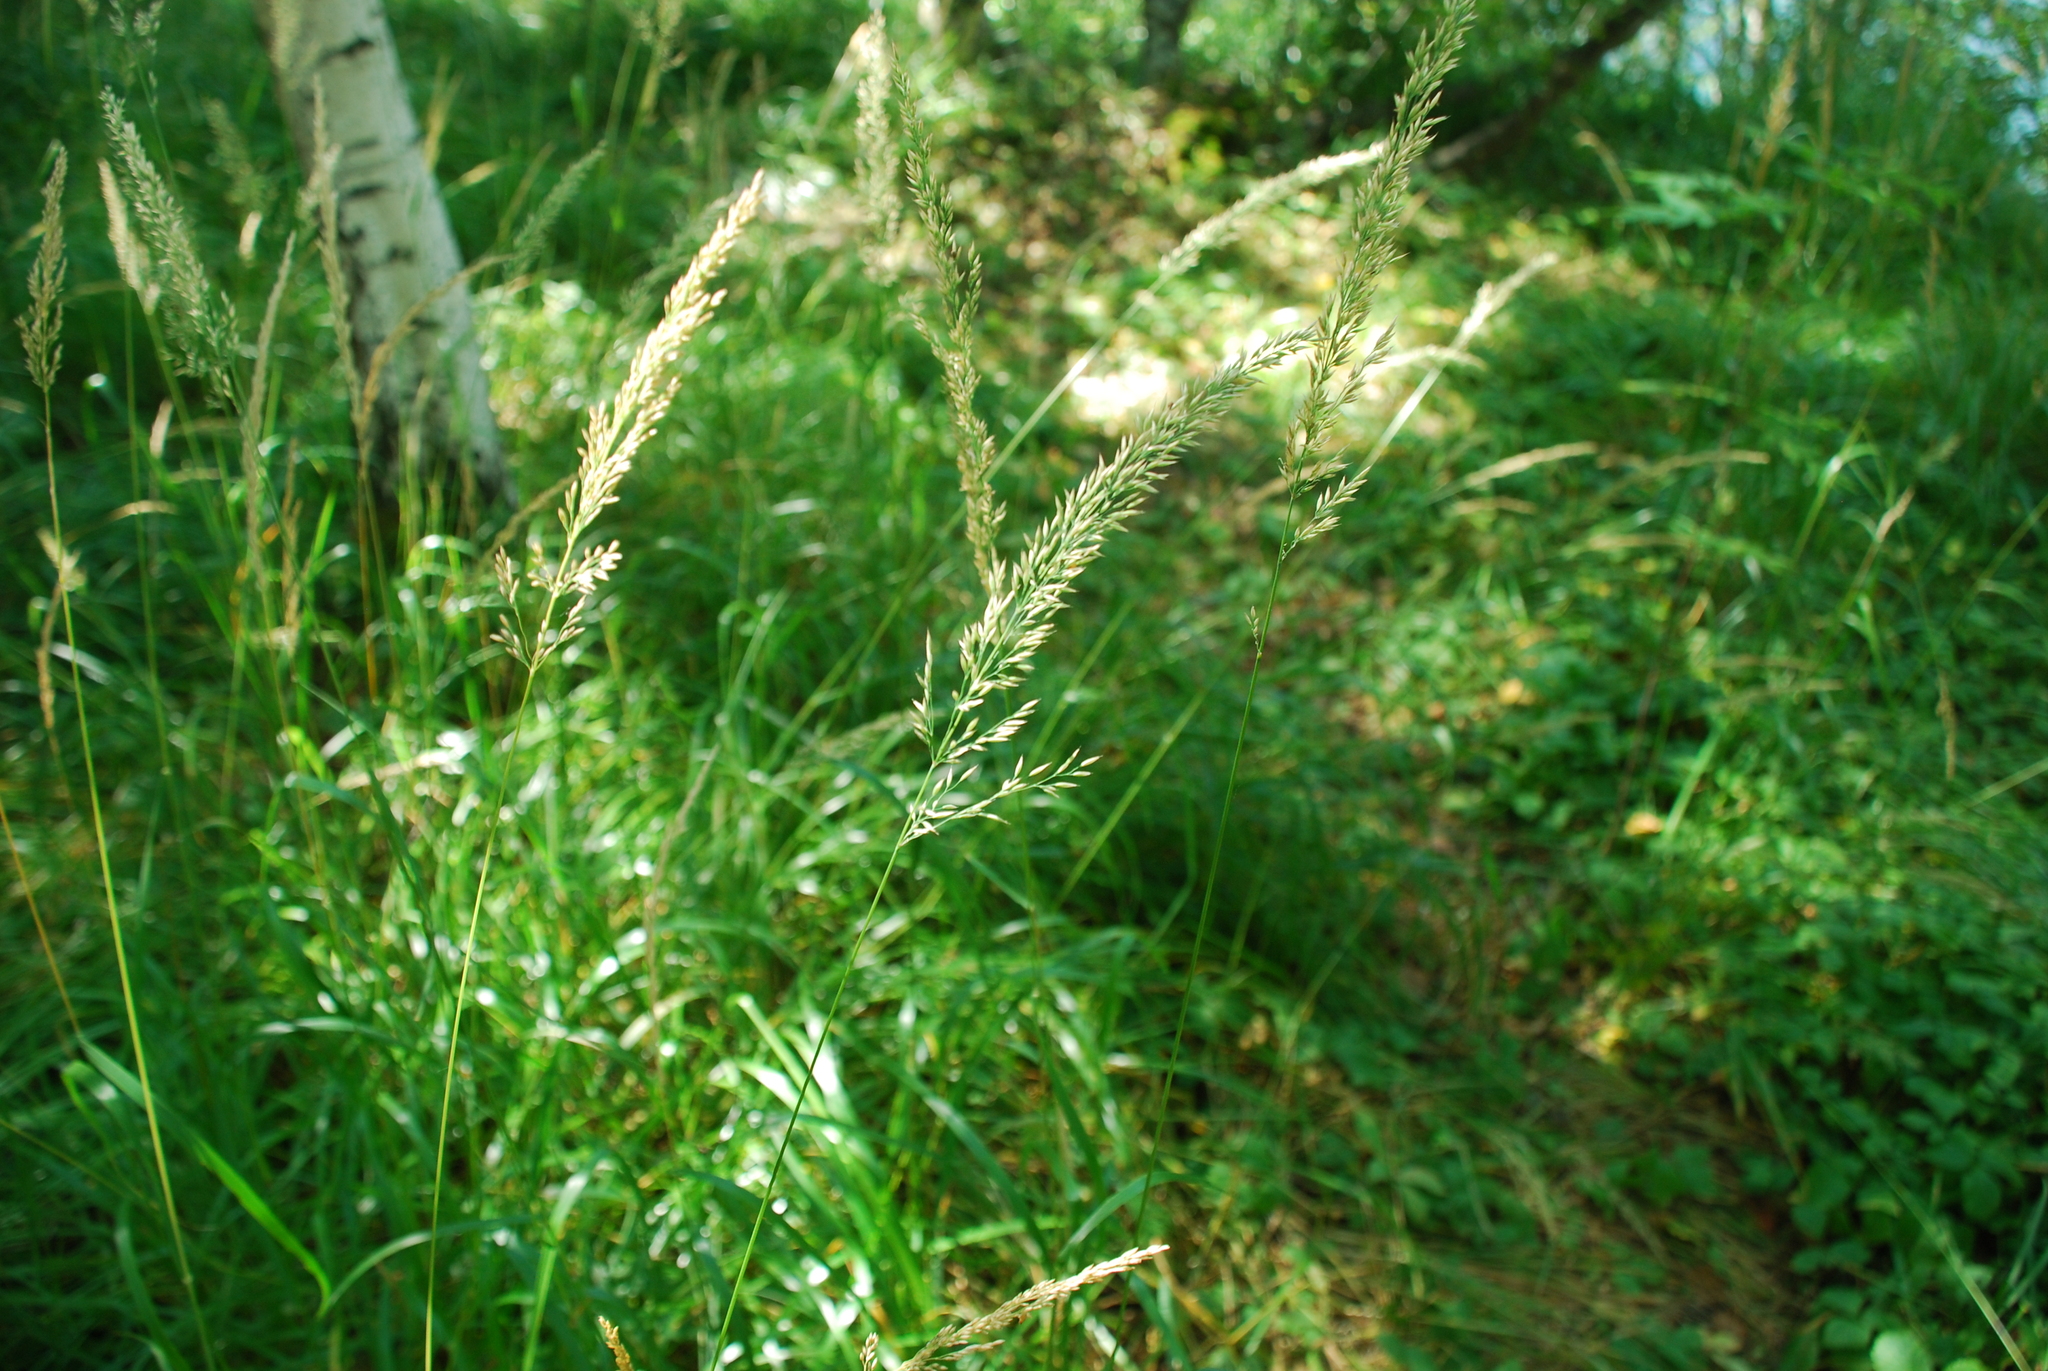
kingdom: Plantae
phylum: Tracheophyta
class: Liliopsida
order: Poales
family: Poaceae
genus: Calamagrostis
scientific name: Calamagrostis arundinacea
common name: Metskastik
